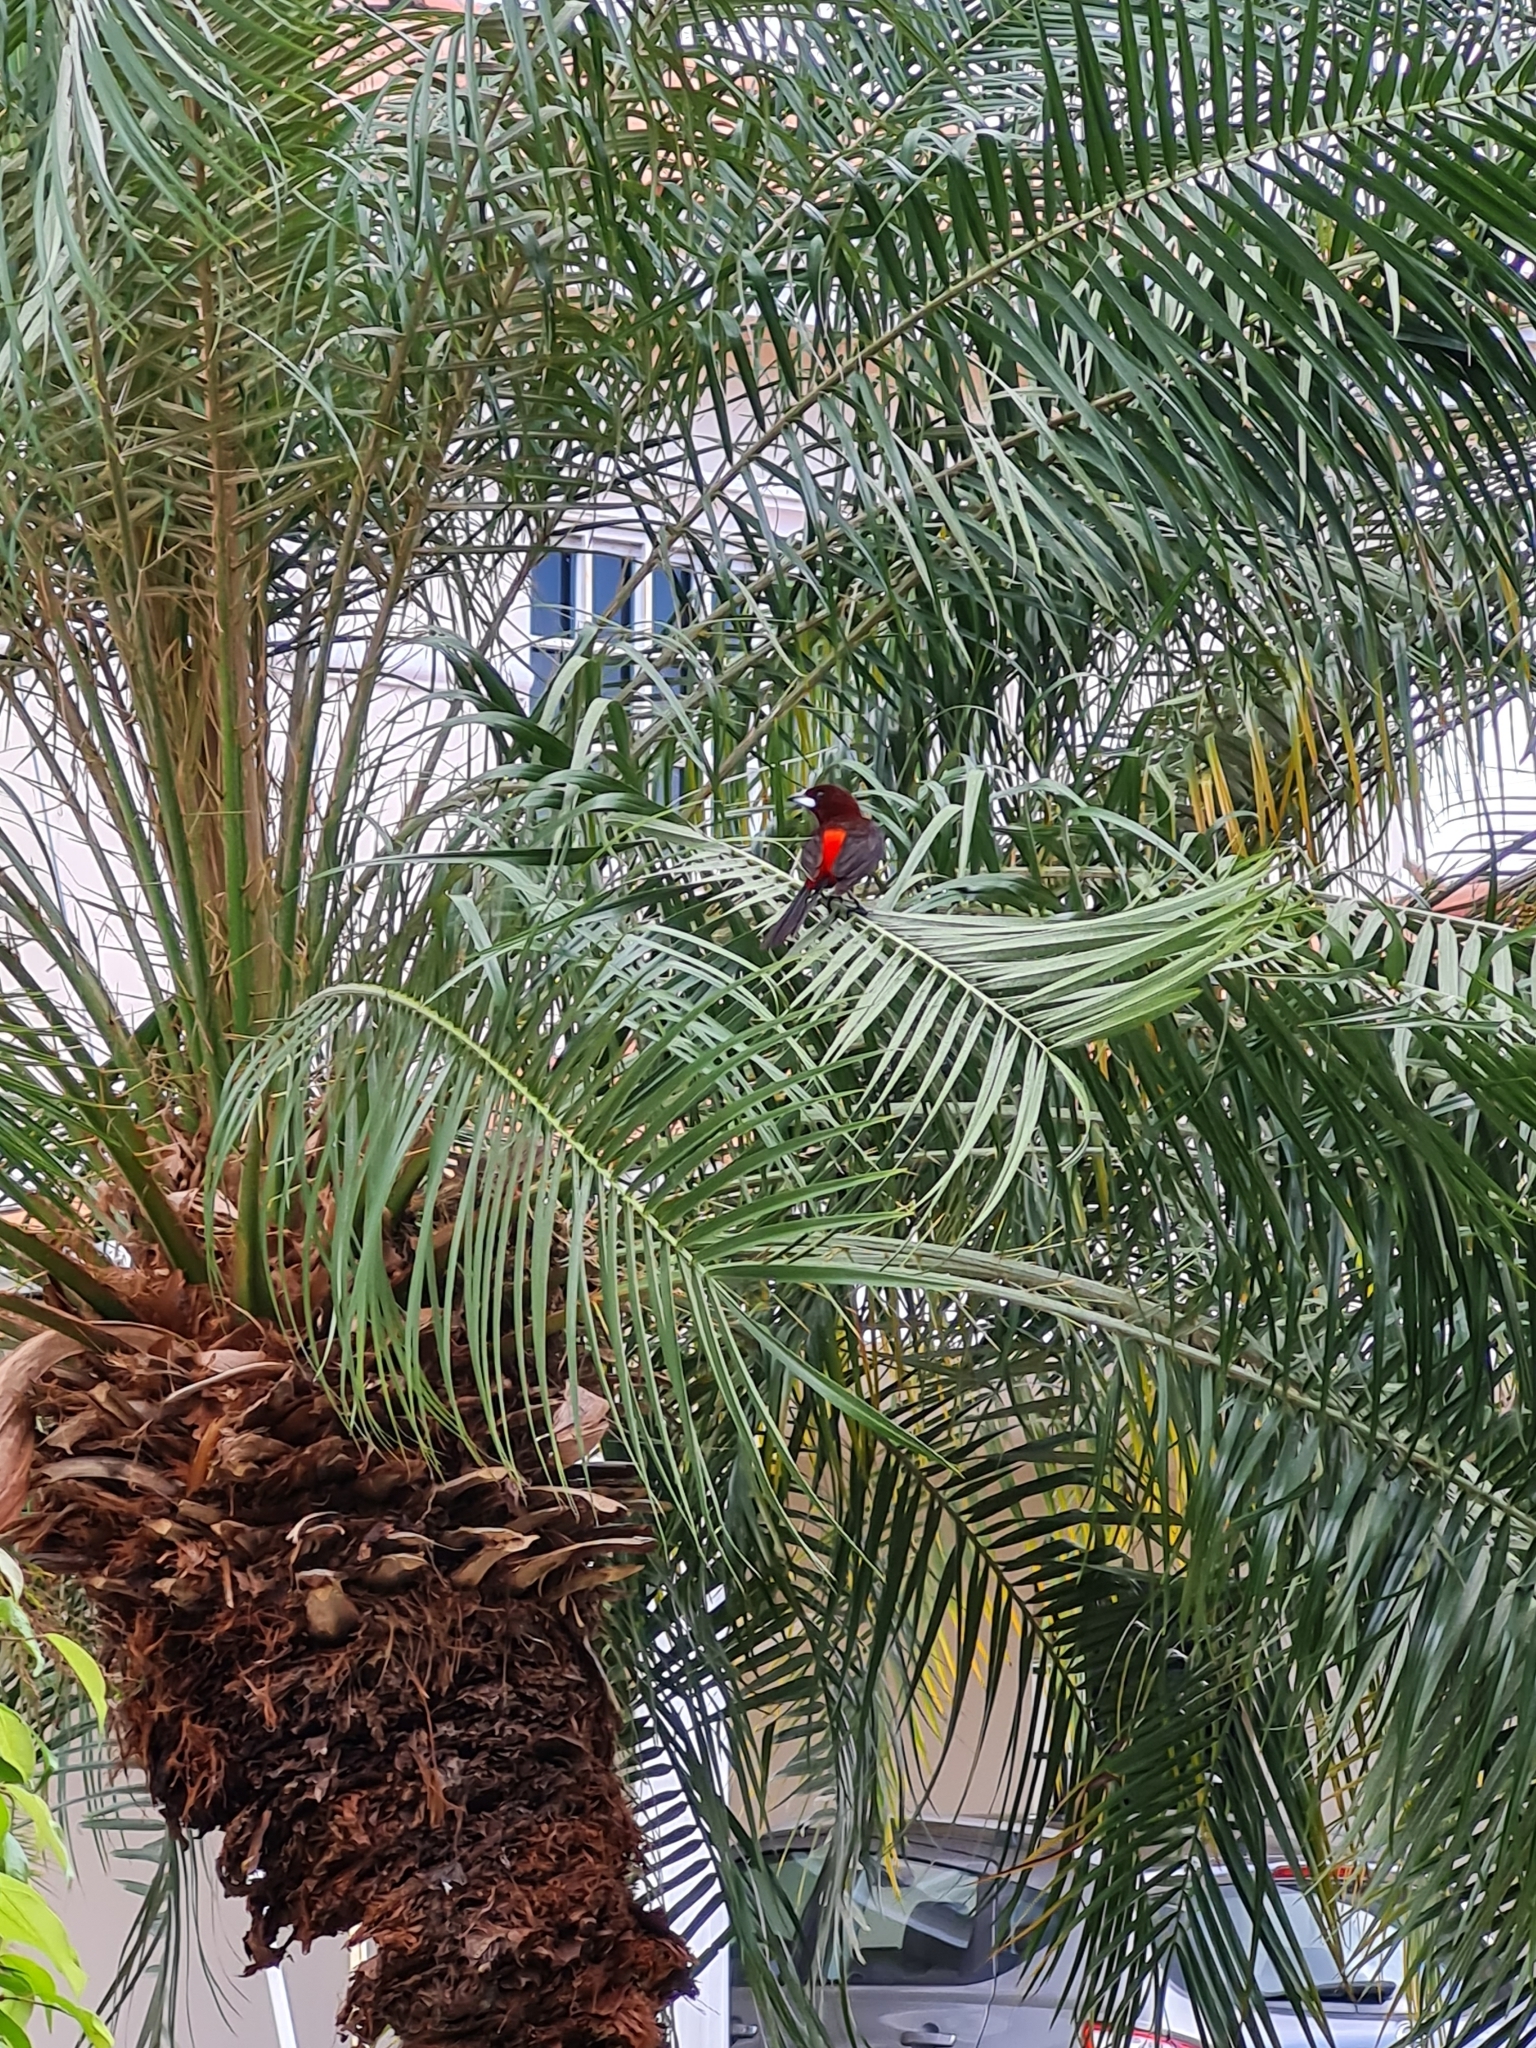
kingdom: Animalia
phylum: Chordata
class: Aves
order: Passeriformes
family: Thraupidae
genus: Ramphocelus
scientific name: Ramphocelus dimidiatus
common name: Crimson-backed tanager
